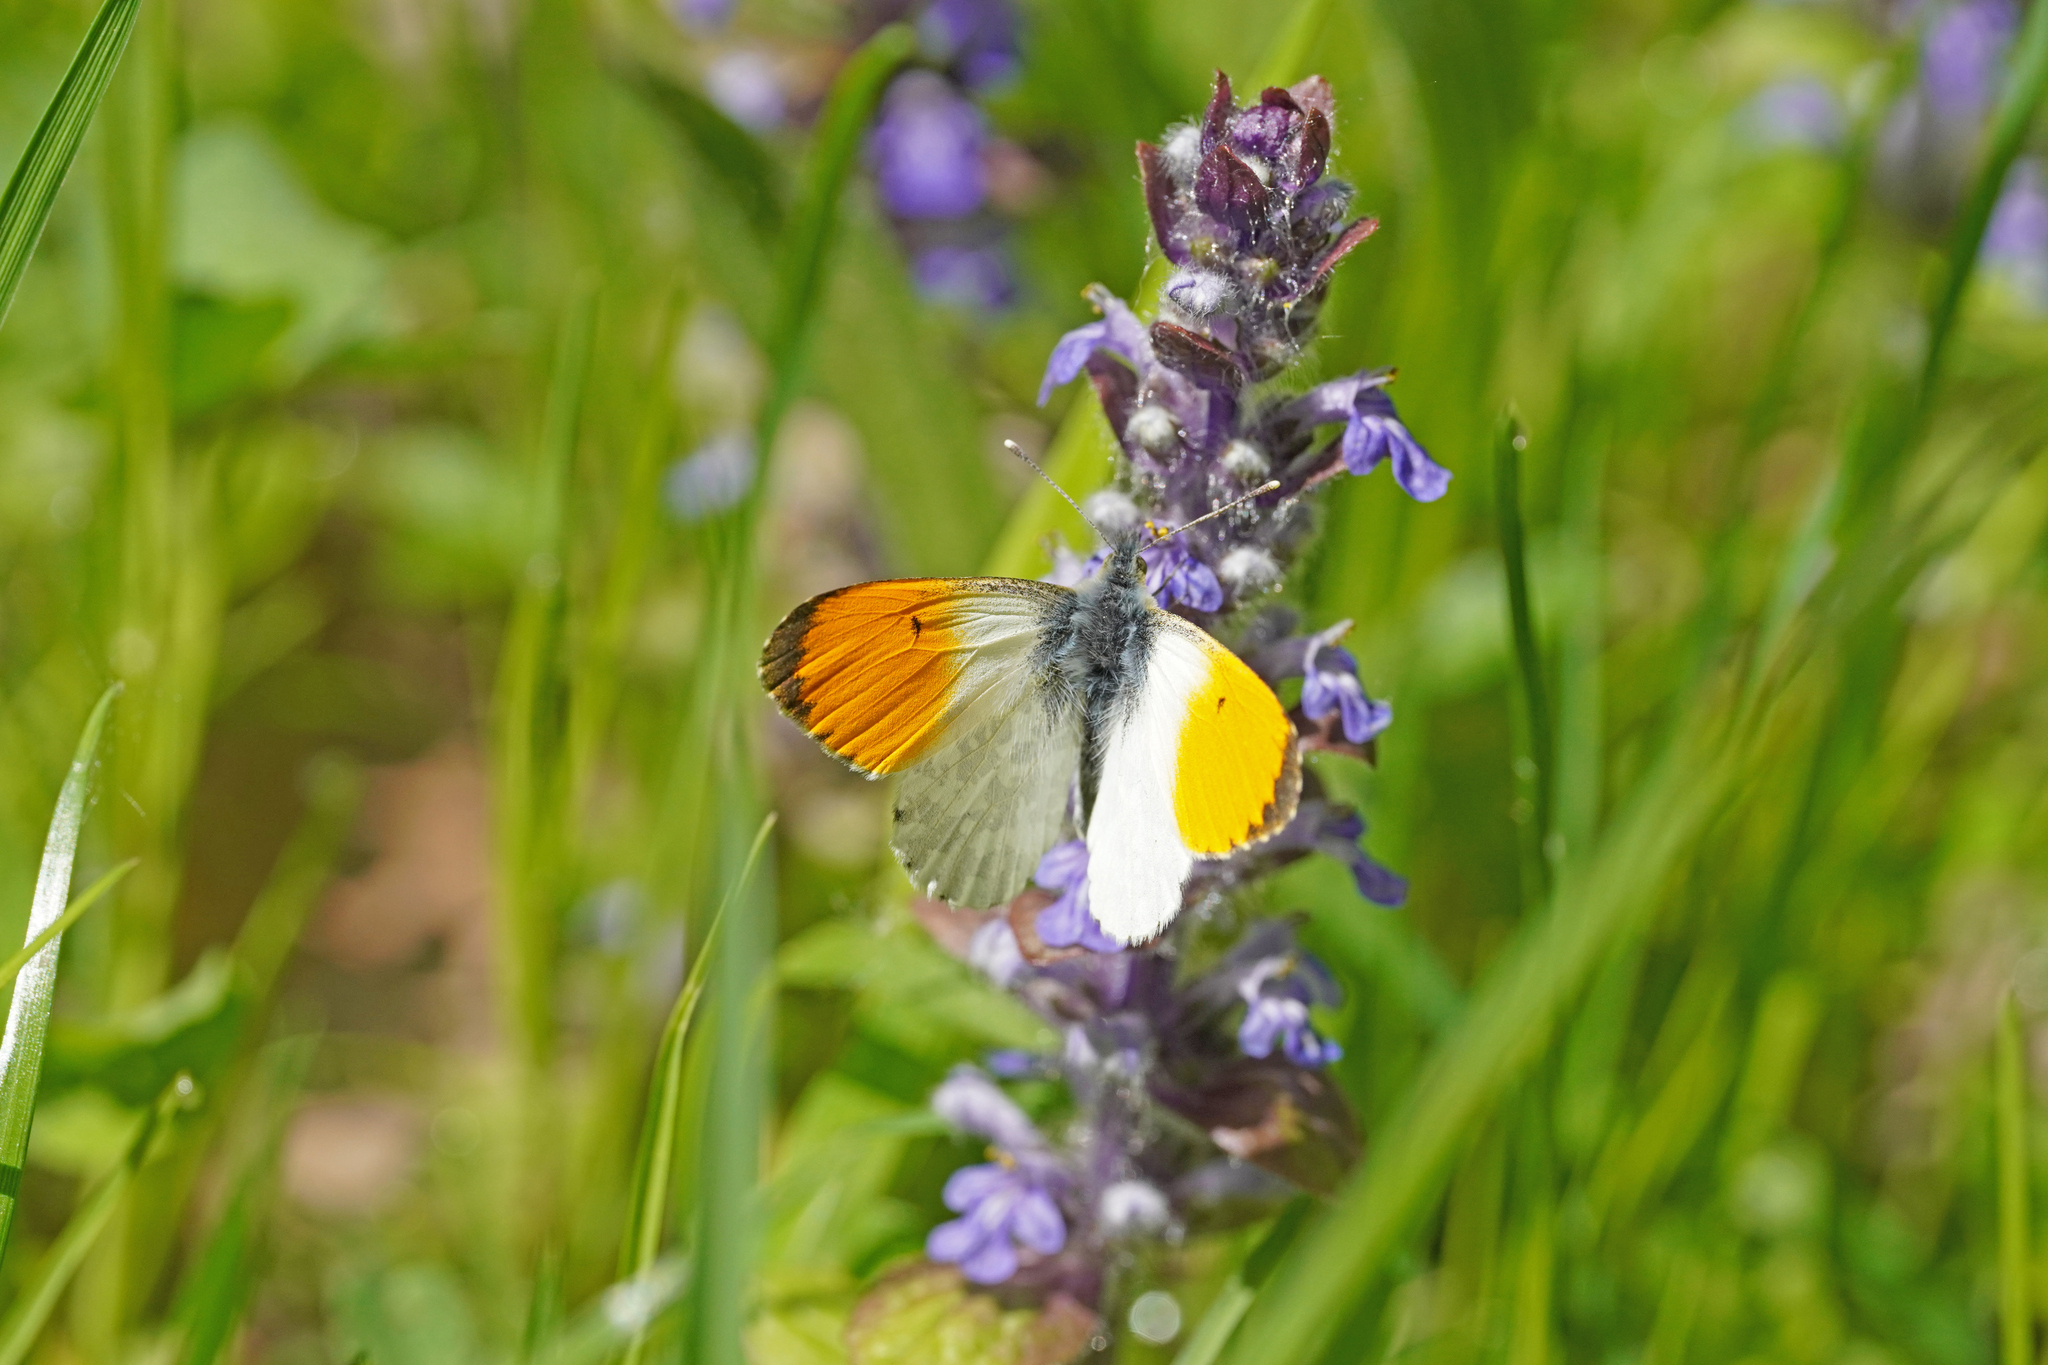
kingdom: Animalia
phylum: Arthropoda
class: Insecta
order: Lepidoptera
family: Pieridae
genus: Anthocharis
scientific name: Anthocharis cardamines
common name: Orange-tip
